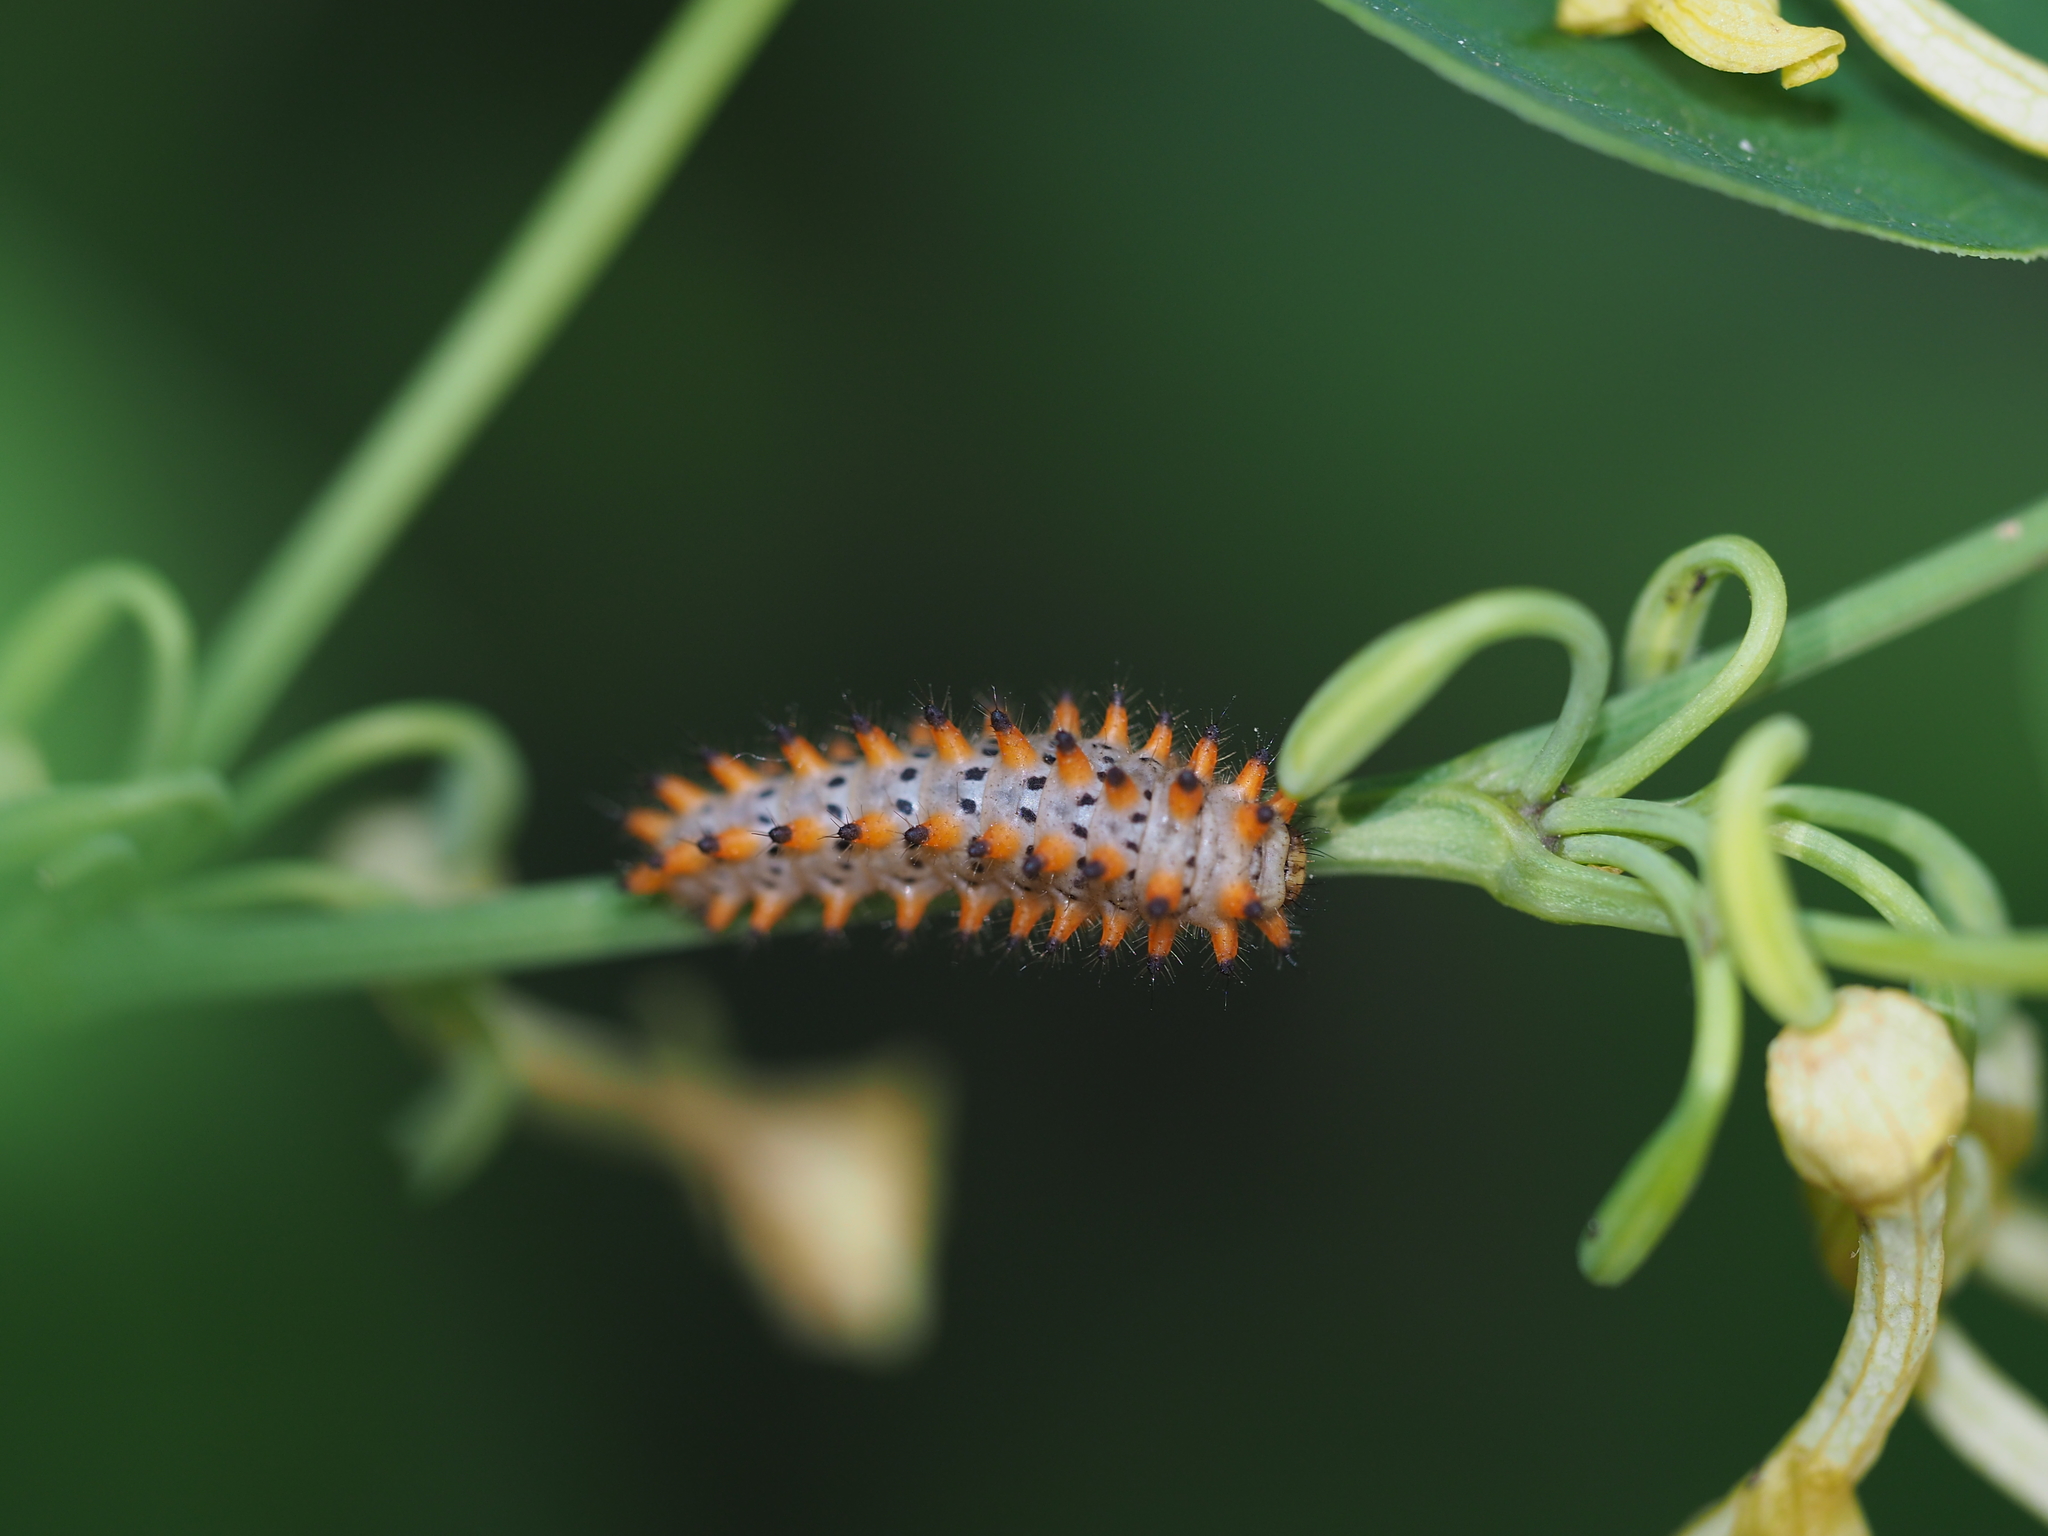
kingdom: Animalia
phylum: Arthropoda
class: Insecta
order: Lepidoptera
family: Papilionidae
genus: Zerynthia
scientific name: Zerynthia polyxena
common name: Southern festoon
